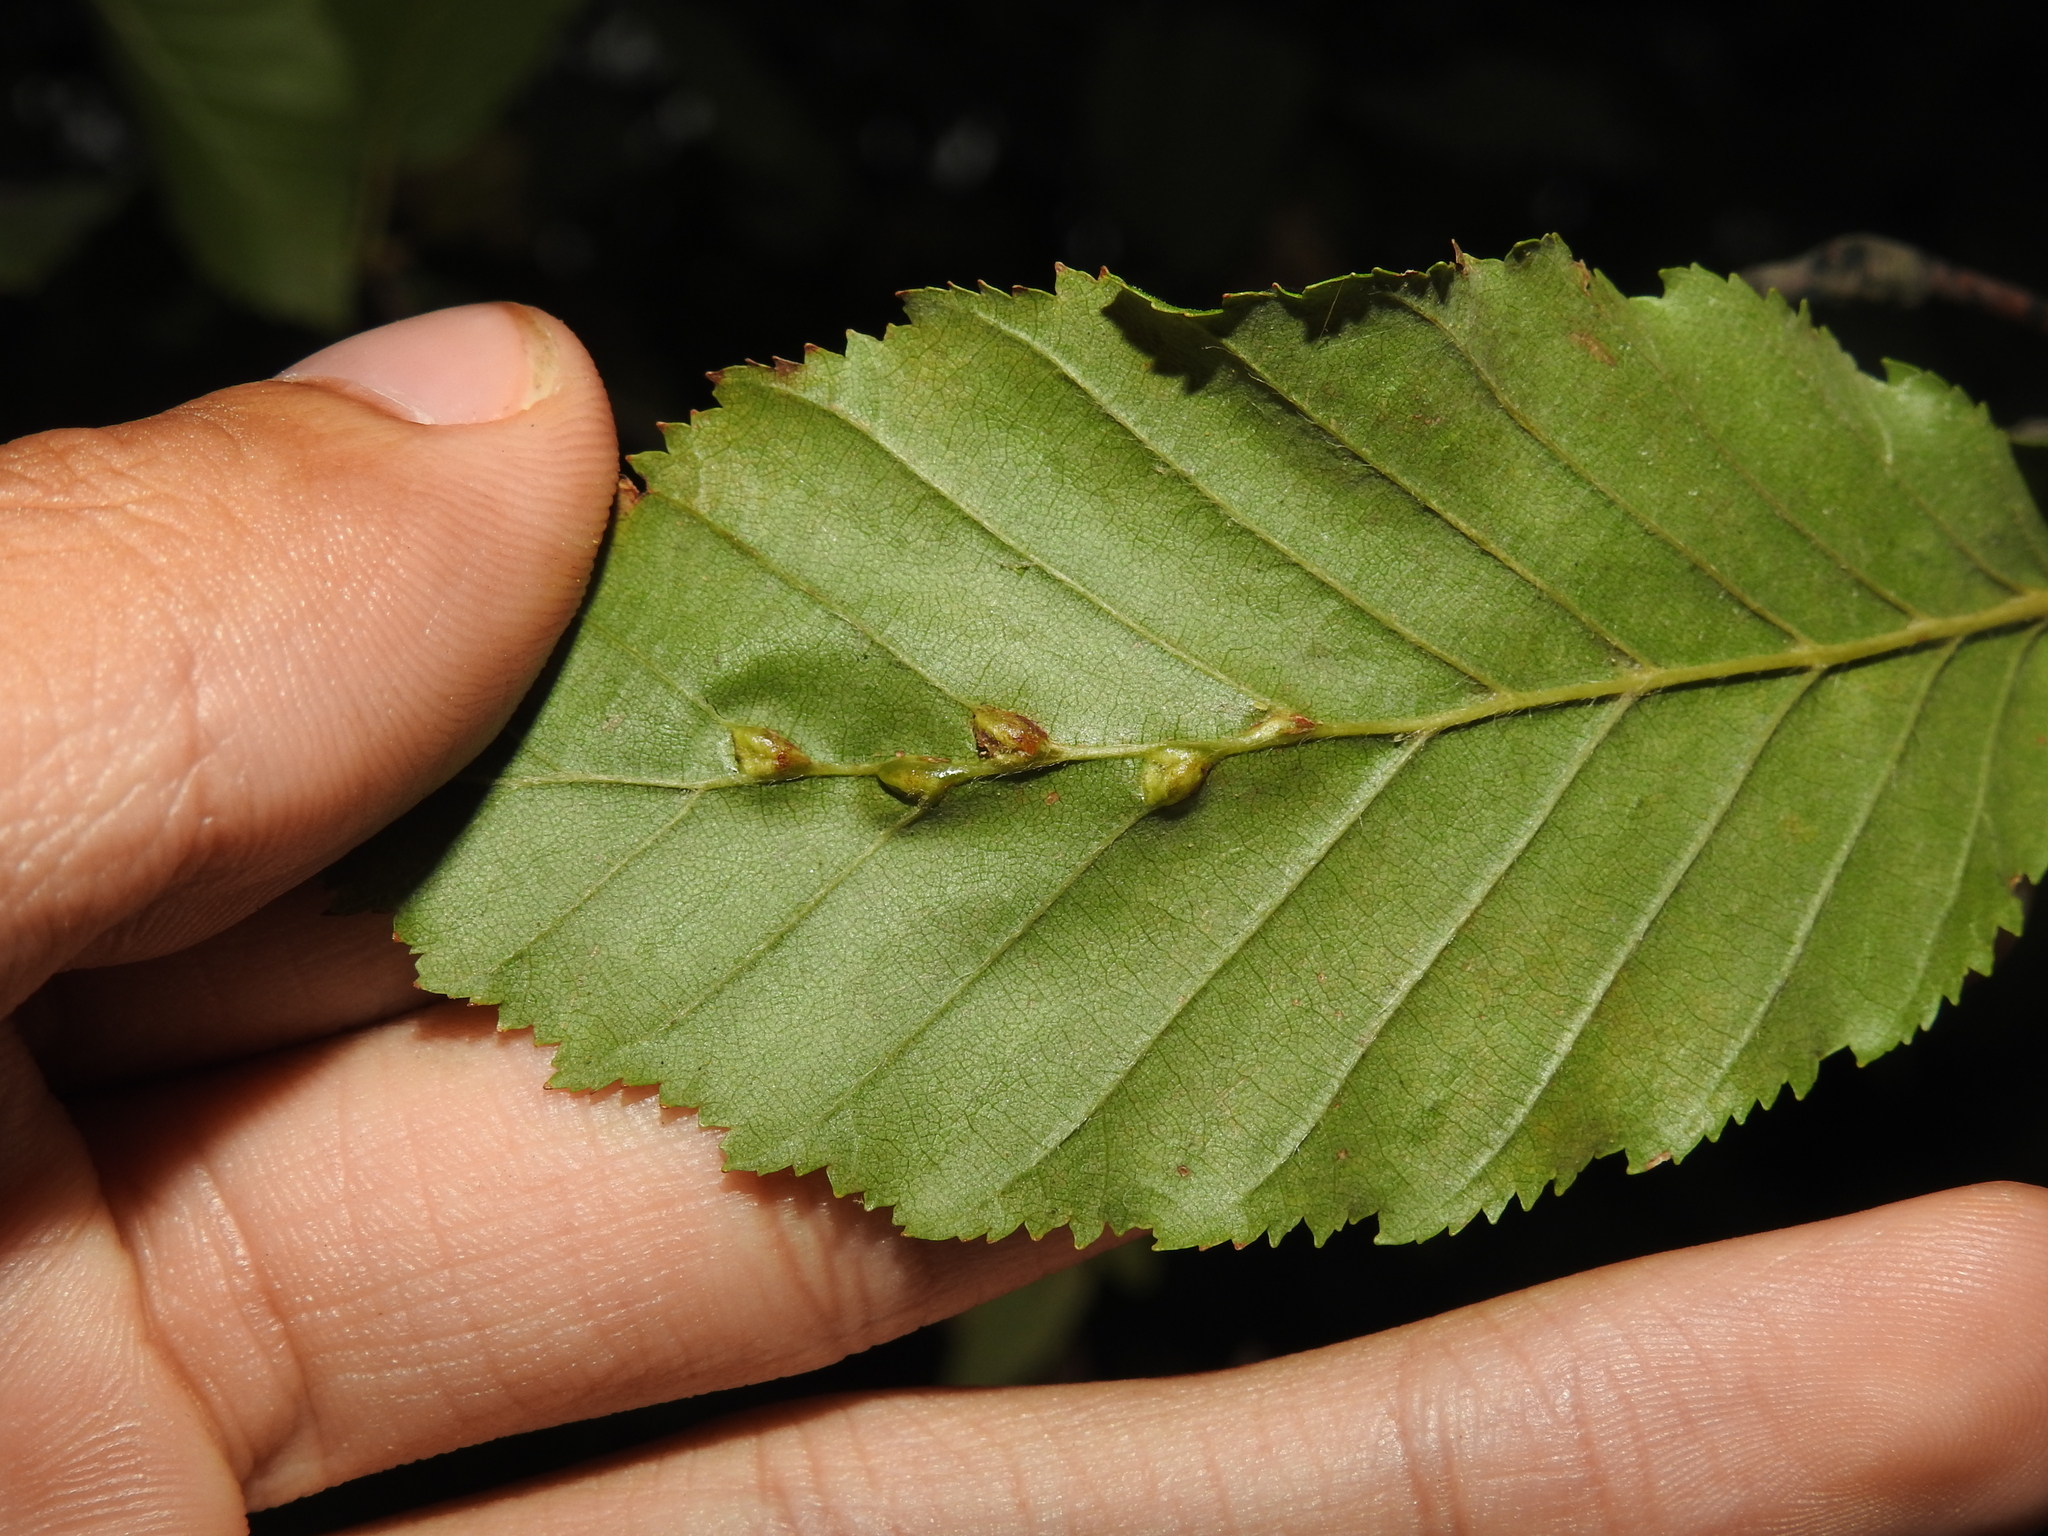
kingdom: Animalia
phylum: Arthropoda
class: Insecta
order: Diptera
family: Cecidomyiidae
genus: Zygiobia
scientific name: Zygiobia carpini
